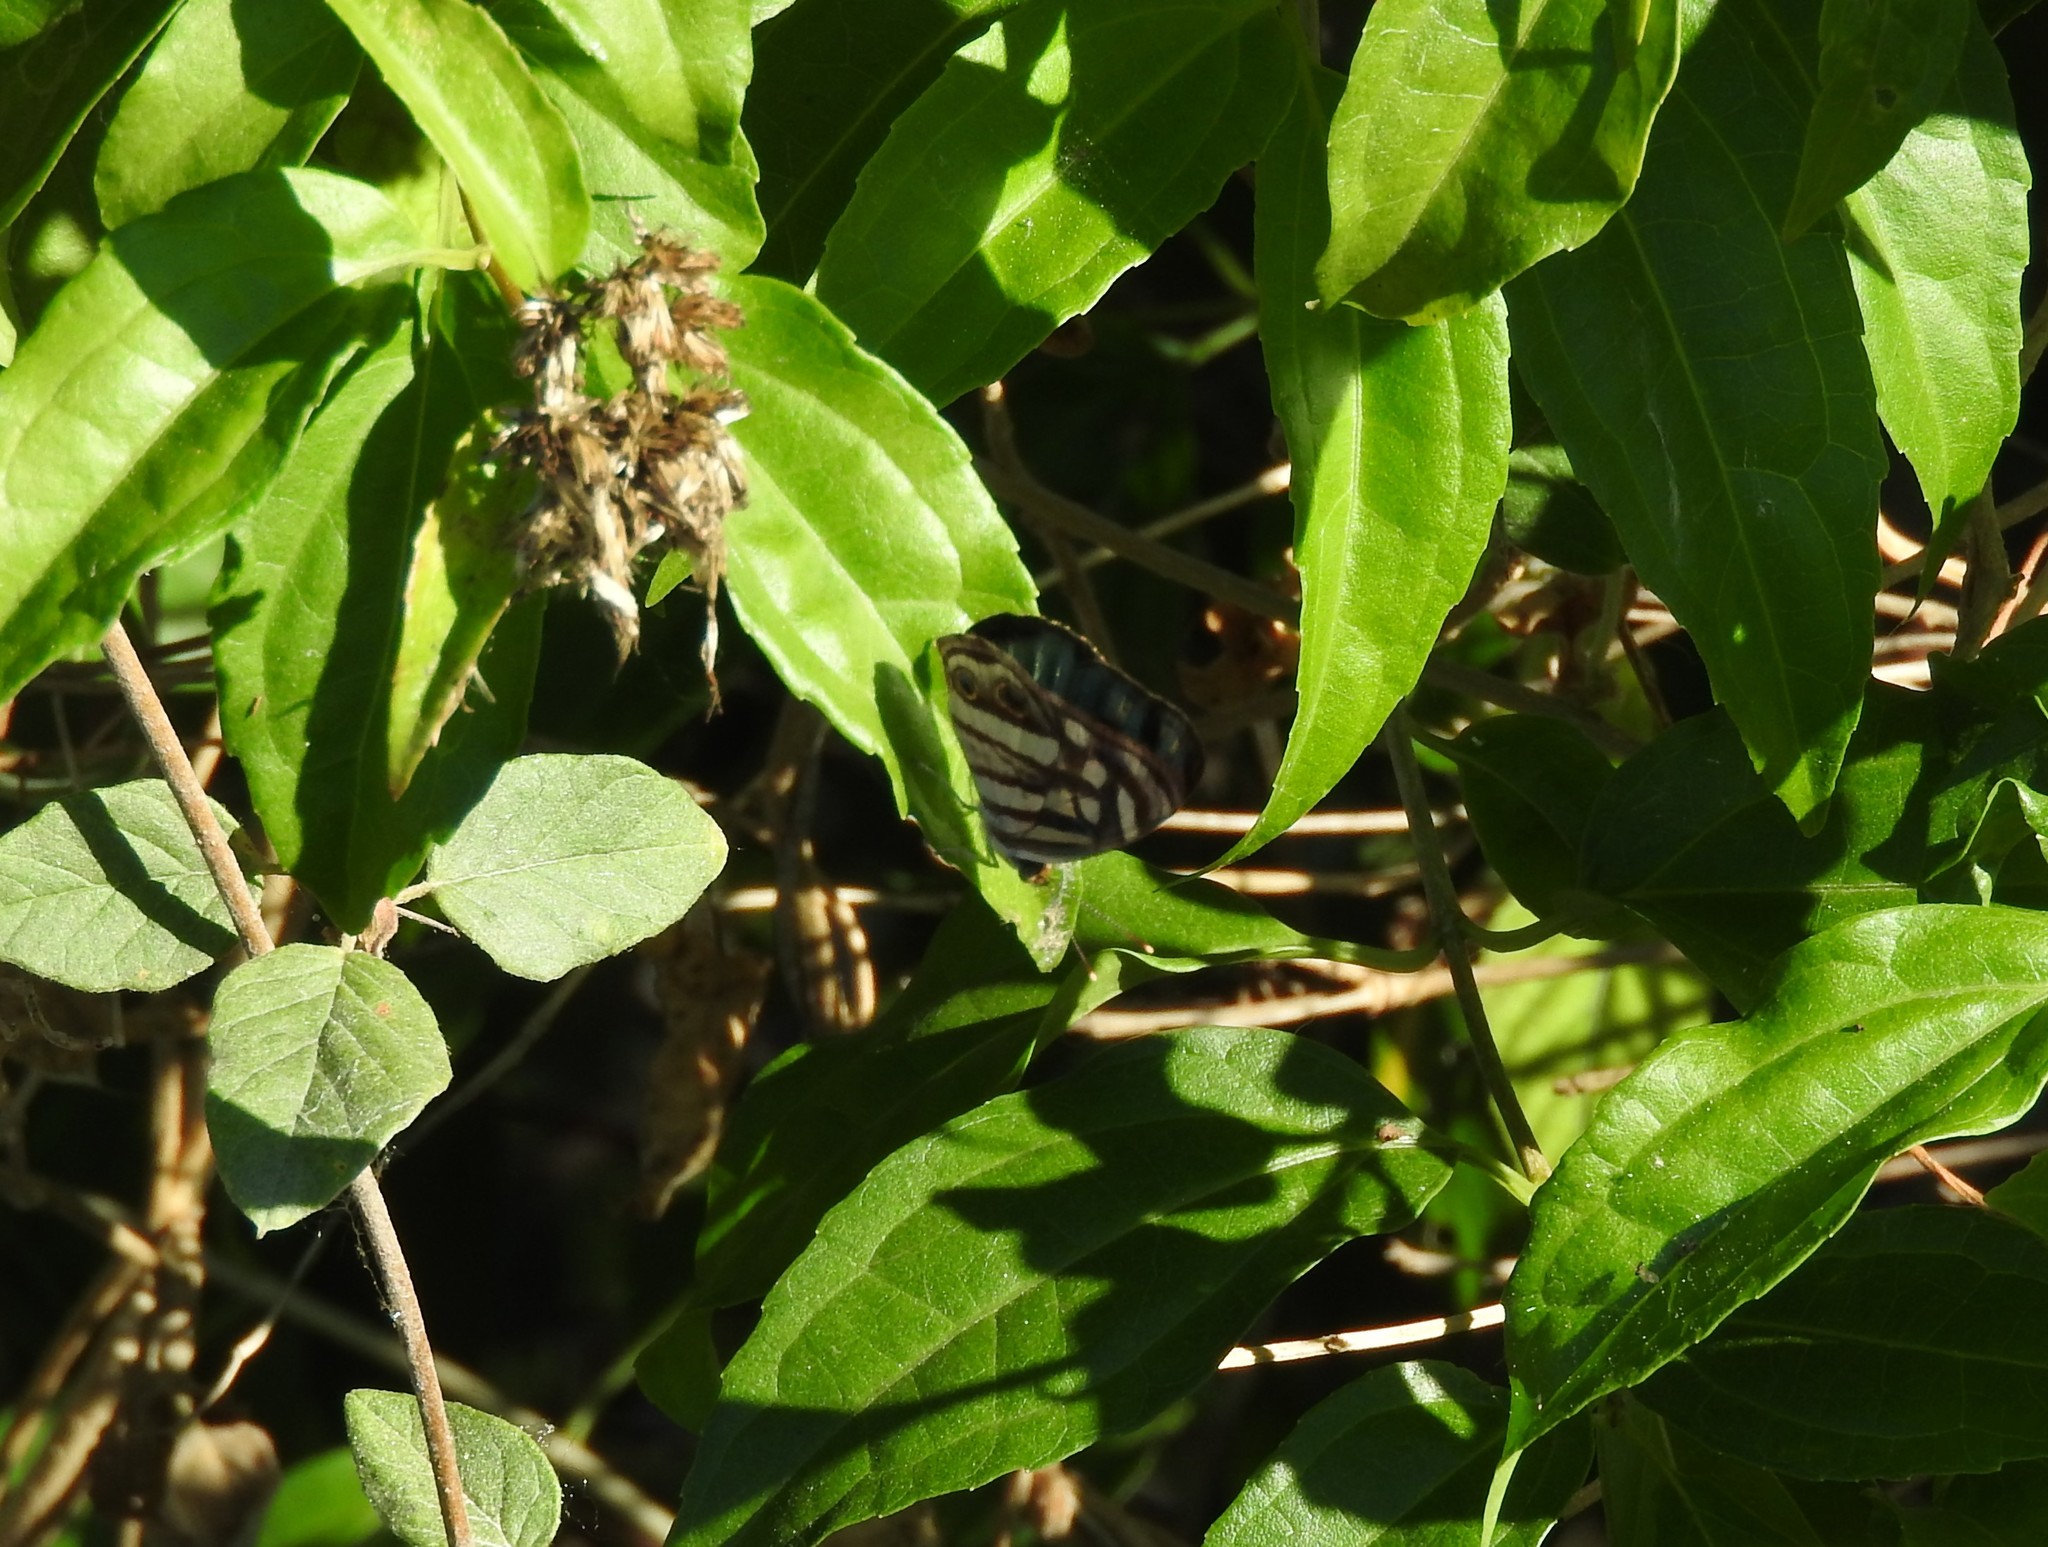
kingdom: Animalia
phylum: Arthropoda
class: Insecta
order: Lepidoptera
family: Nymphalidae
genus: Dynamine
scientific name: Dynamine mylitta
